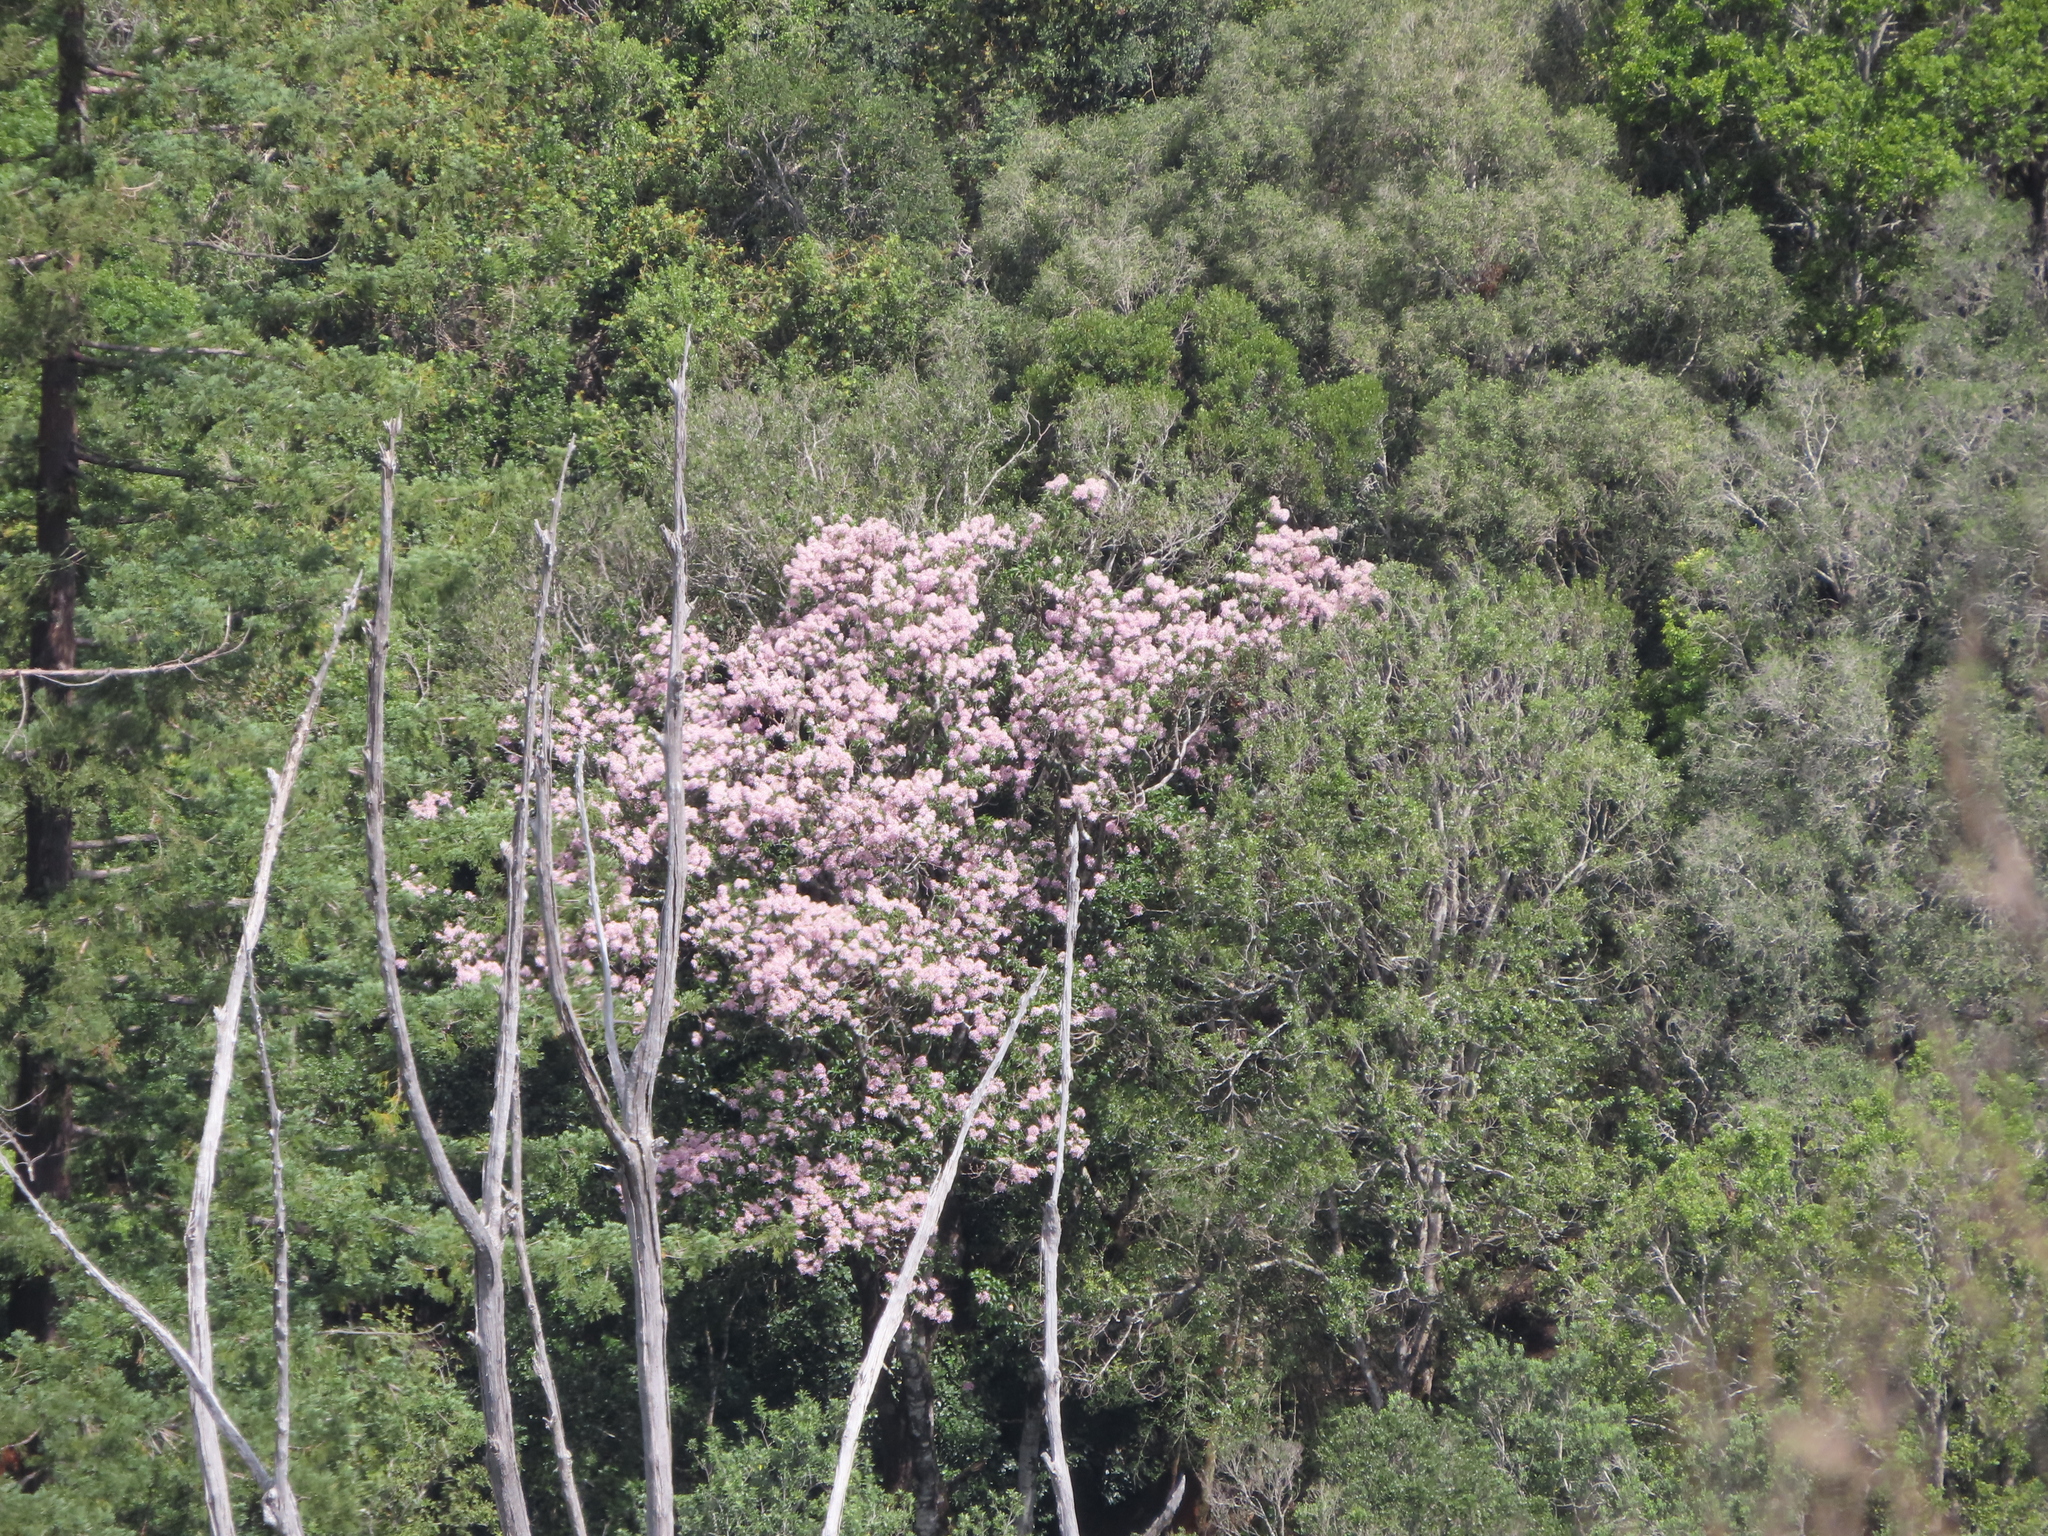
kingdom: Plantae
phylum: Tracheophyta
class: Magnoliopsida
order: Sapindales
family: Rutaceae
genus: Calodendrum
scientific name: Calodendrum capense
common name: Cape chestnut
